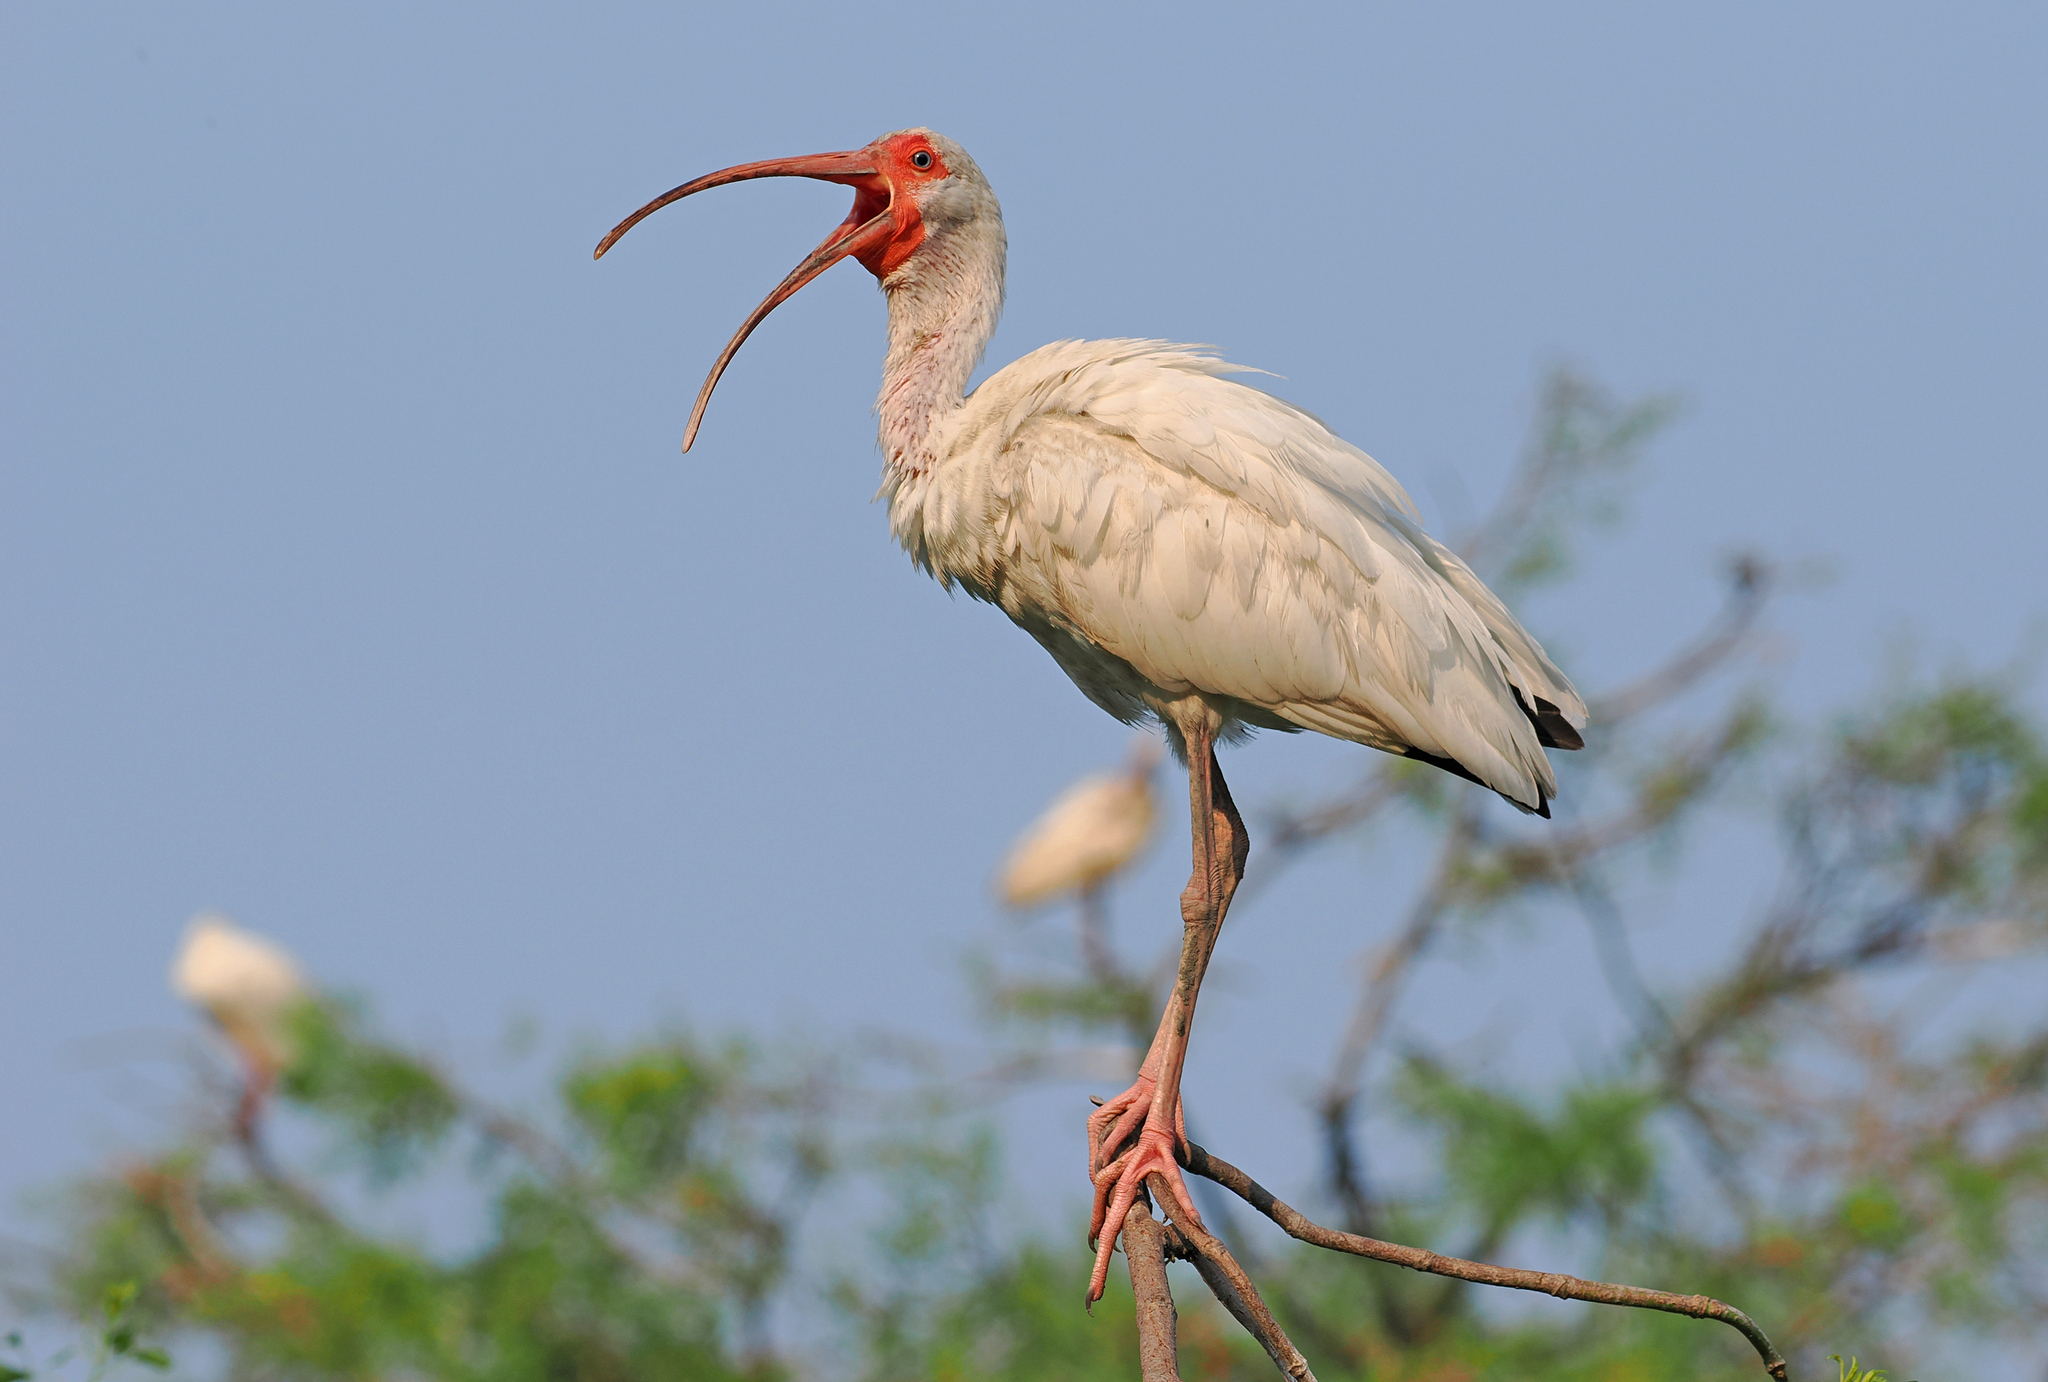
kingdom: Animalia
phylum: Chordata
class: Aves
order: Pelecaniformes
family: Threskiornithidae
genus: Eudocimus
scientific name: Eudocimus albus
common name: White ibis
